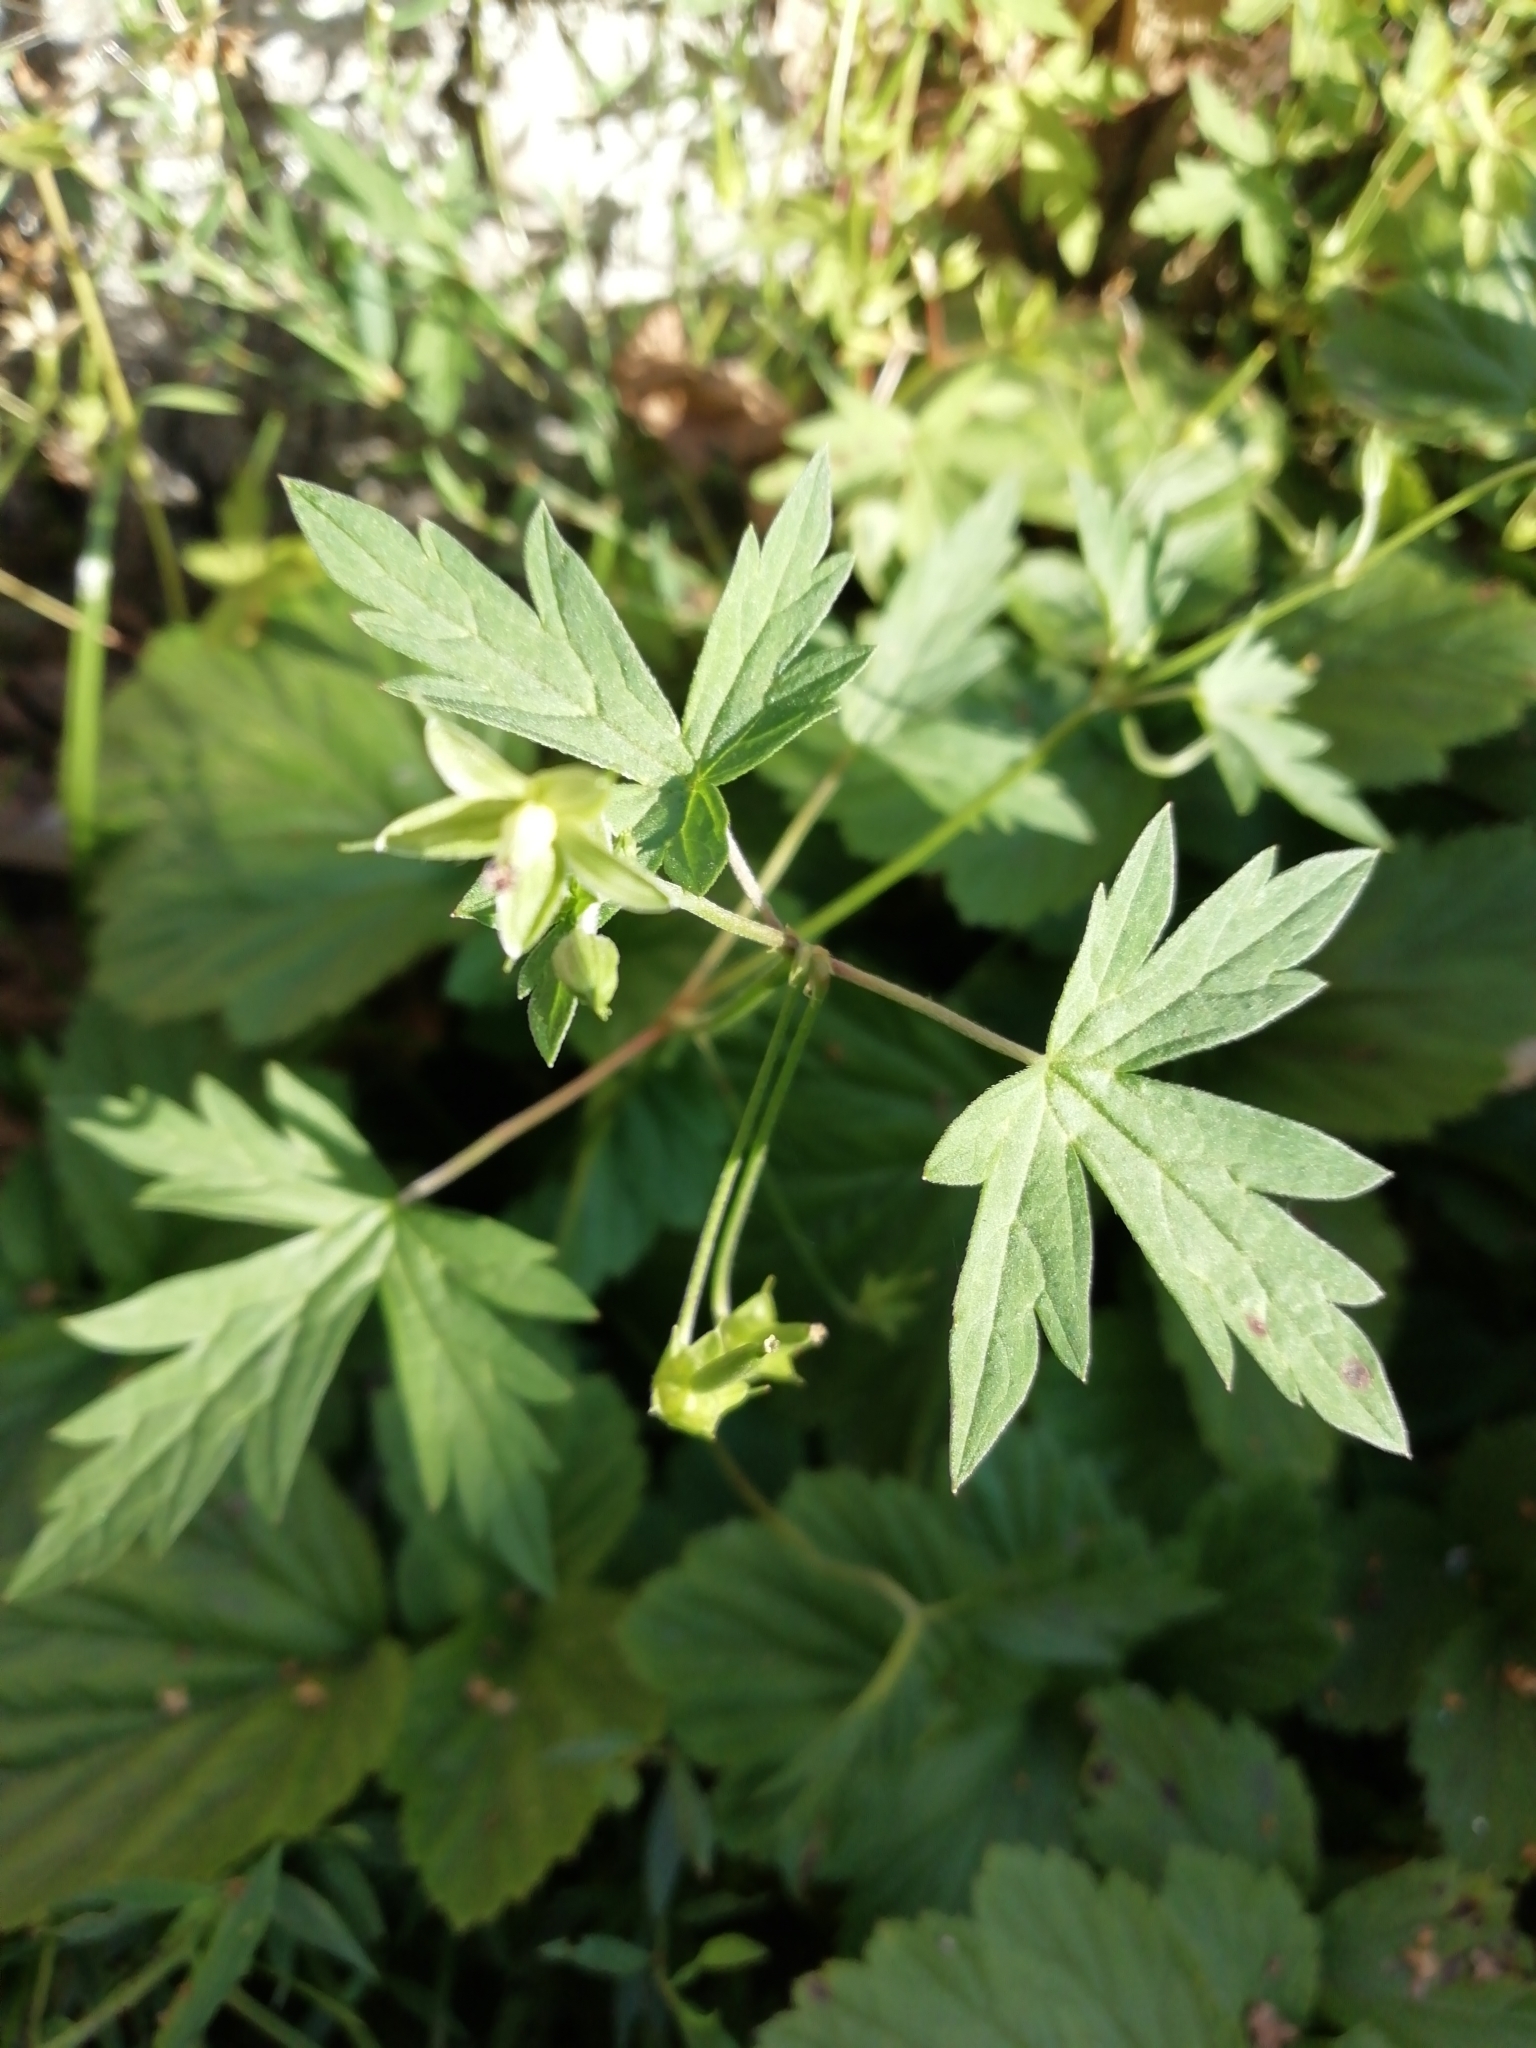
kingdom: Plantae
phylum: Tracheophyta
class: Magnoliopsida
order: Geraniales
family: Geraniaceae
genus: Geranium
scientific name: Geranium sibiricum
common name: Siberian crane's-bill
